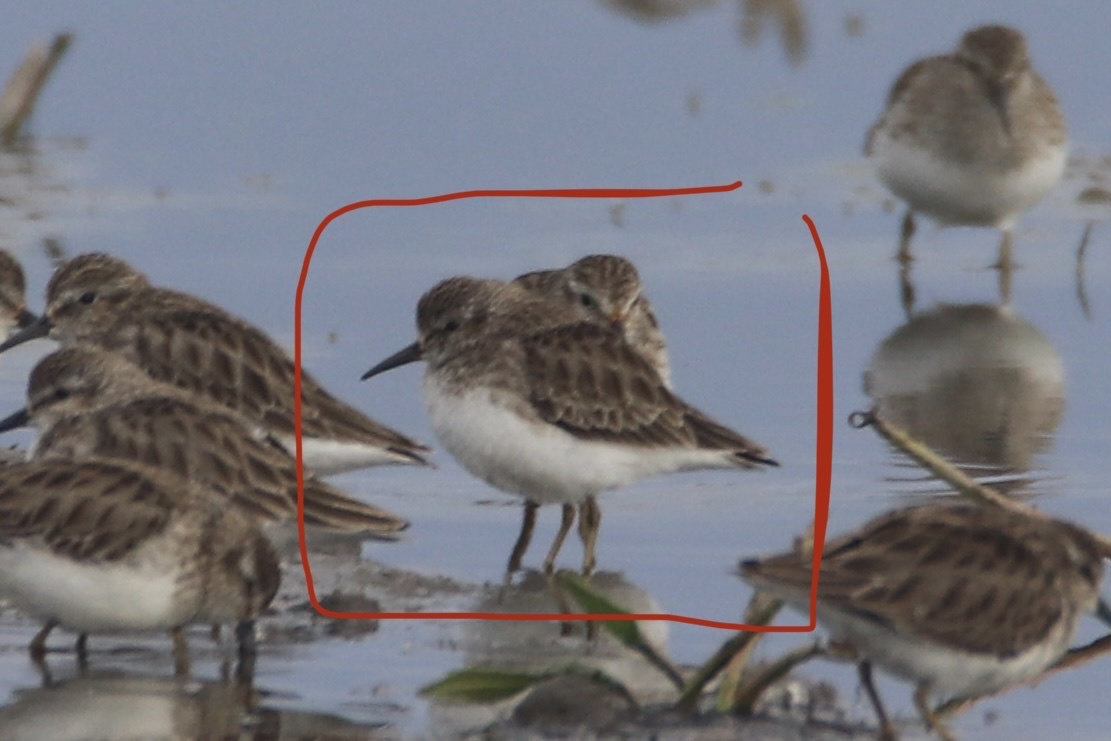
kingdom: Animalia
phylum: Chordata
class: Aves
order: Charadriiformes
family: Scolopacidae
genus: Calidris
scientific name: Calidris minutilla
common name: Least sandpiper
